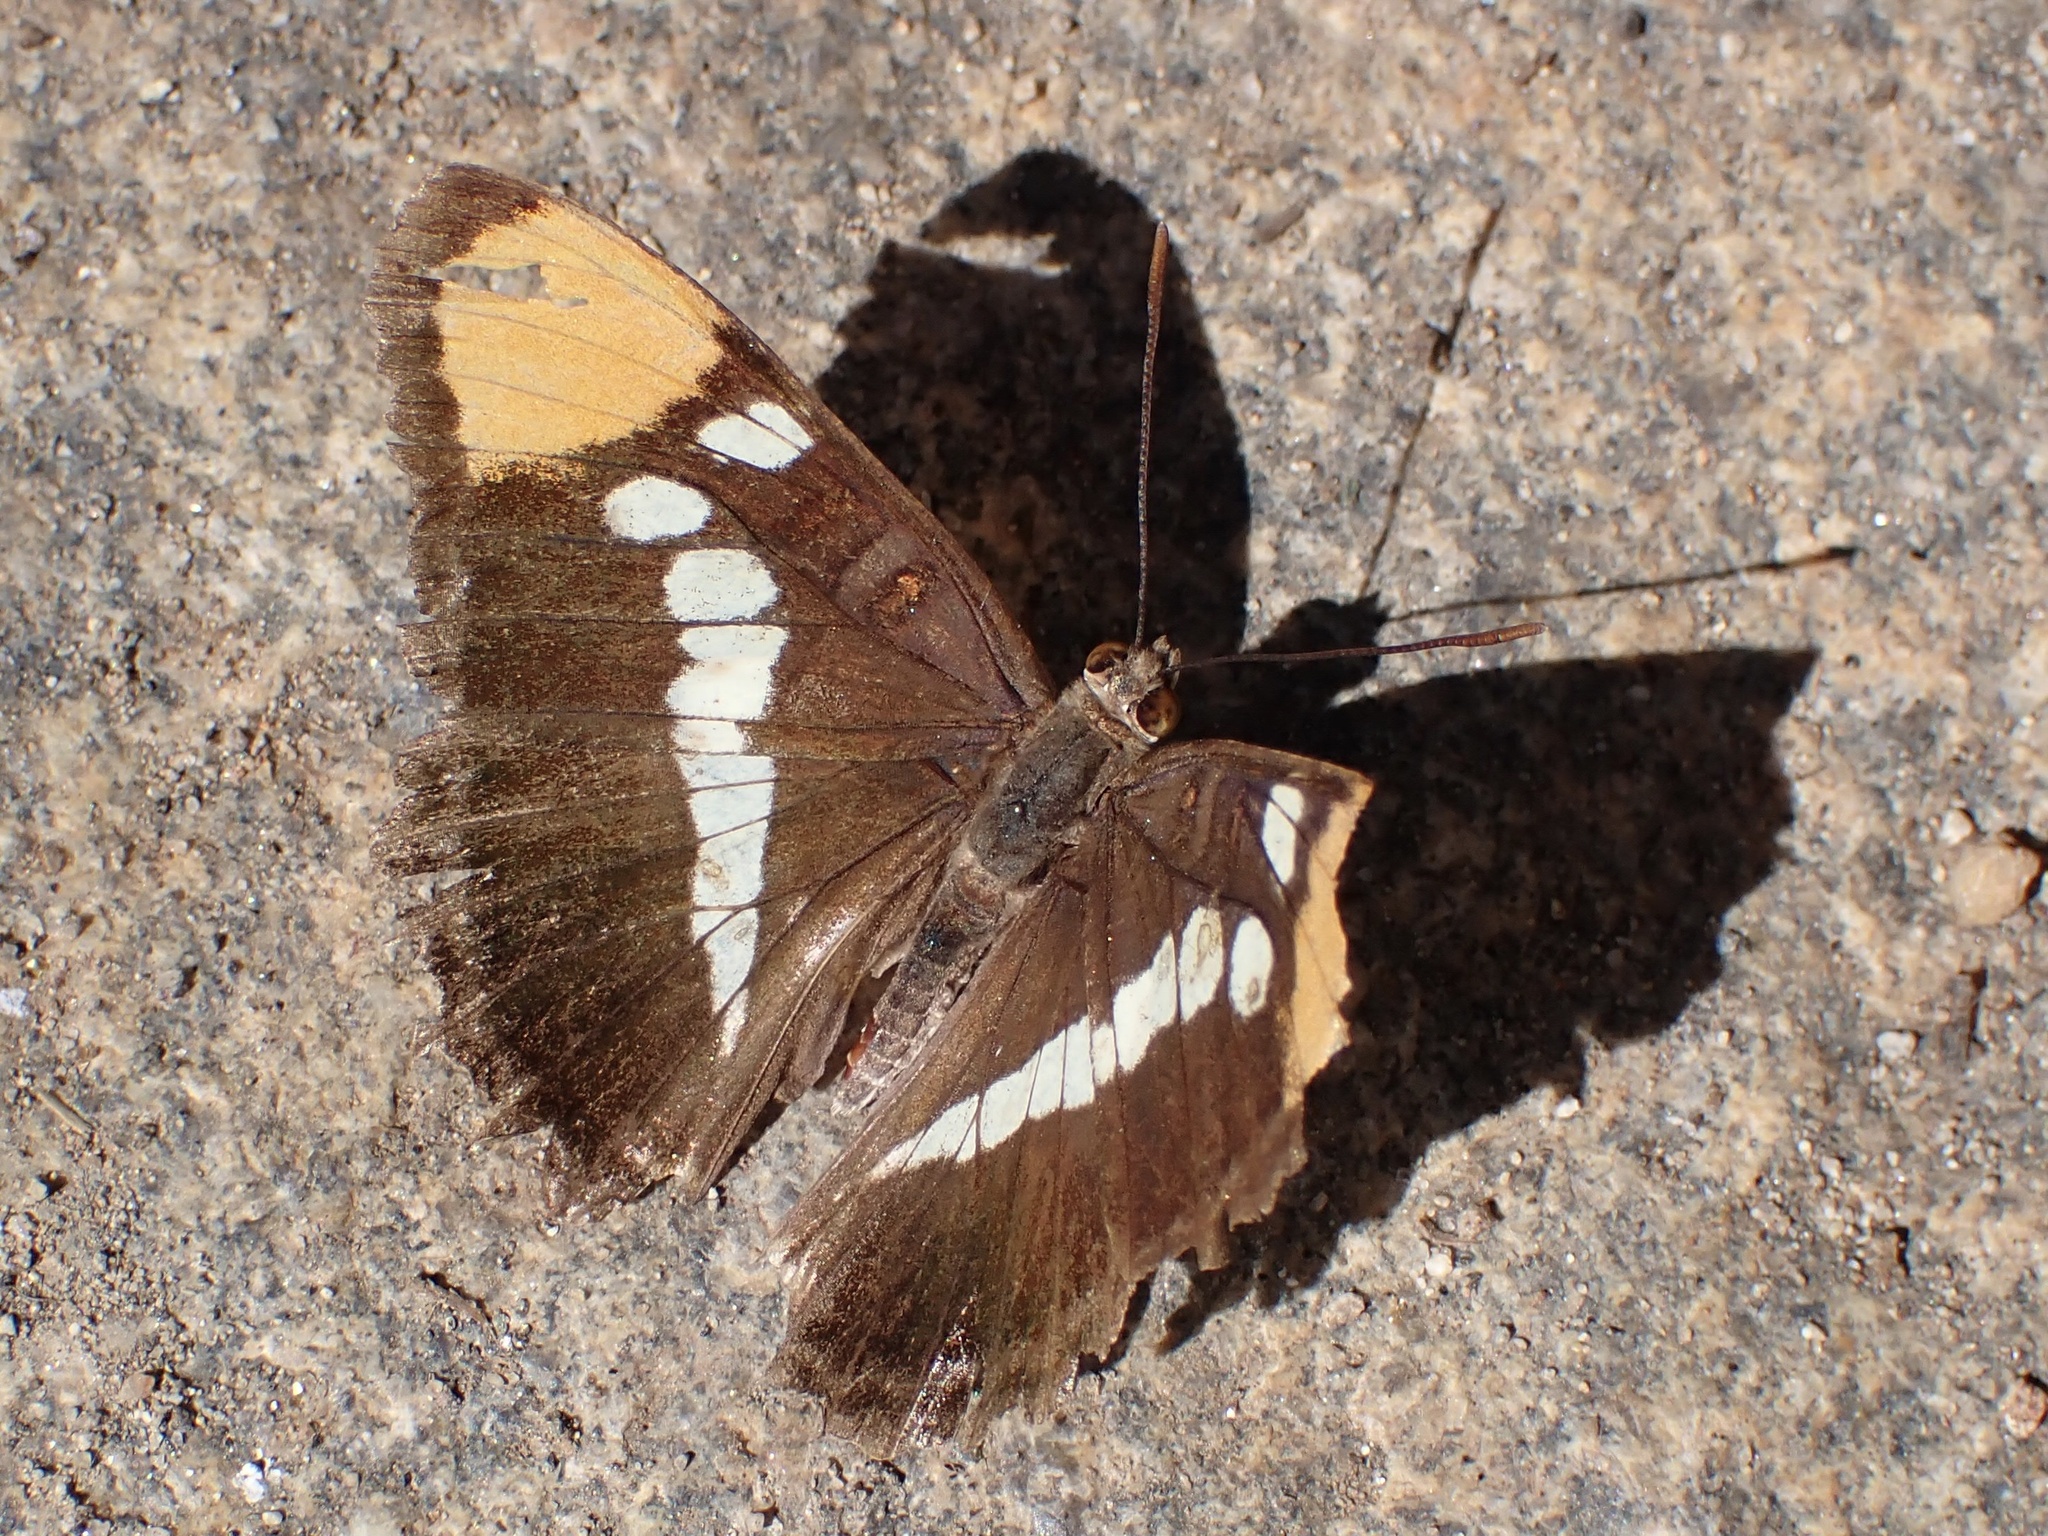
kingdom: Animalia
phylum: Arthropoda
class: Insecta
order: Lepidoptera
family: Nymphalidae
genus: Limenitis
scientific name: Limenitis bredowii
